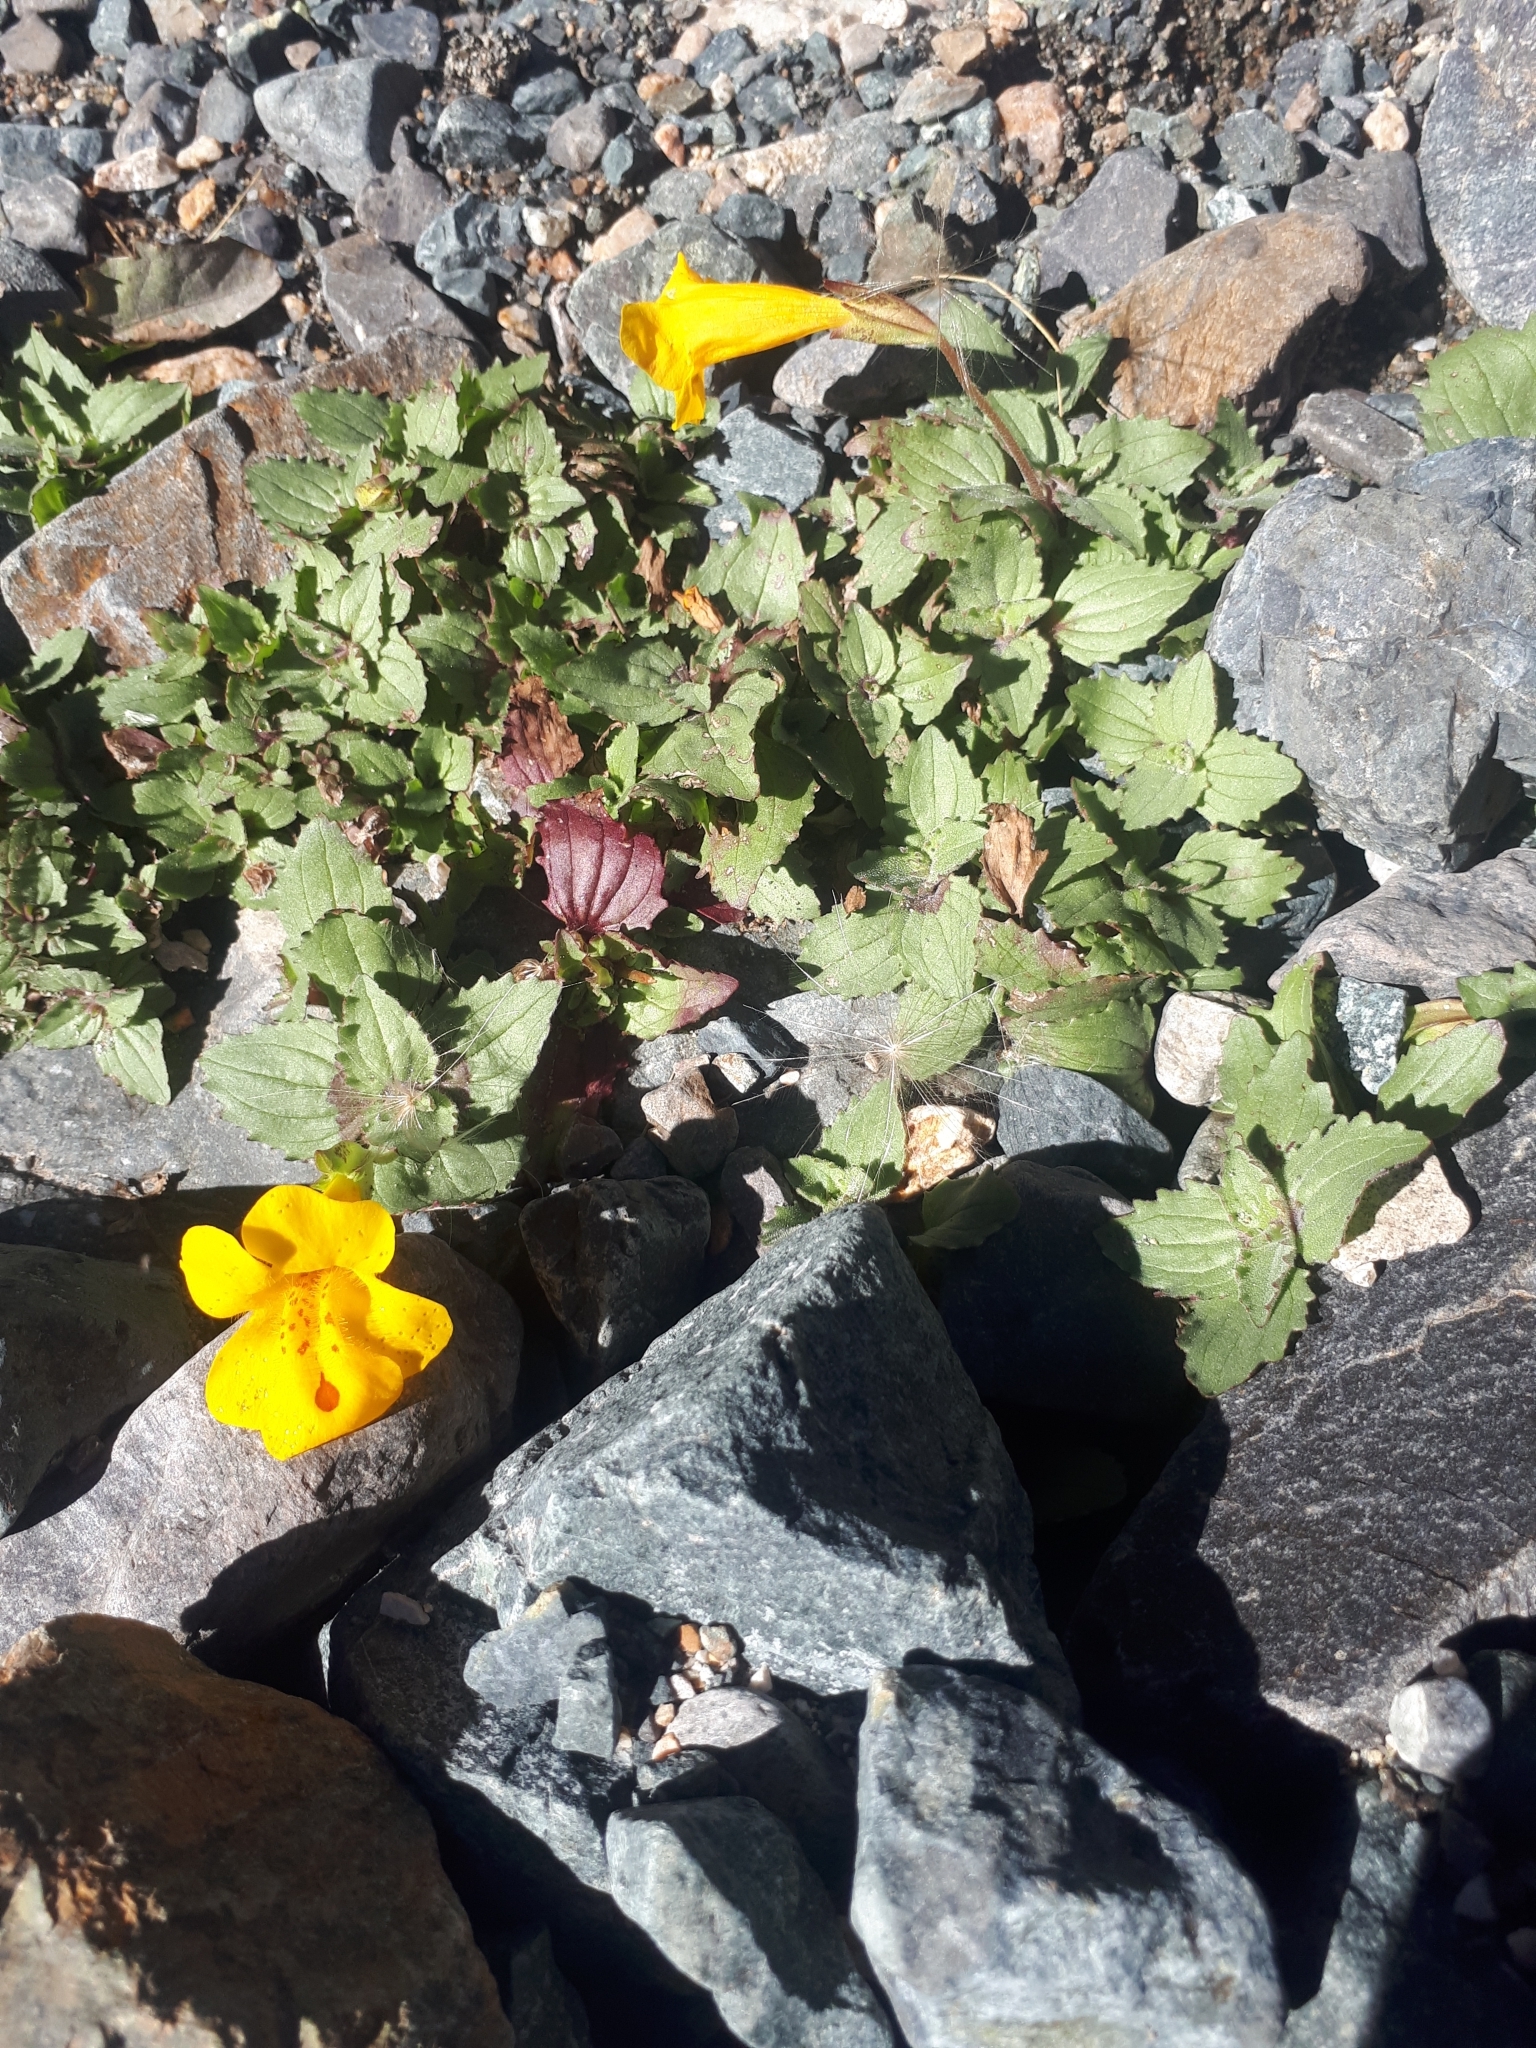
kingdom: Plantae
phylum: Tracheophyta
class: Magnoliopsida
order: Lamiales
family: Phrymaceae
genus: Erythranthe
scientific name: Erythranthe lutea
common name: Yellow monkey-flower
